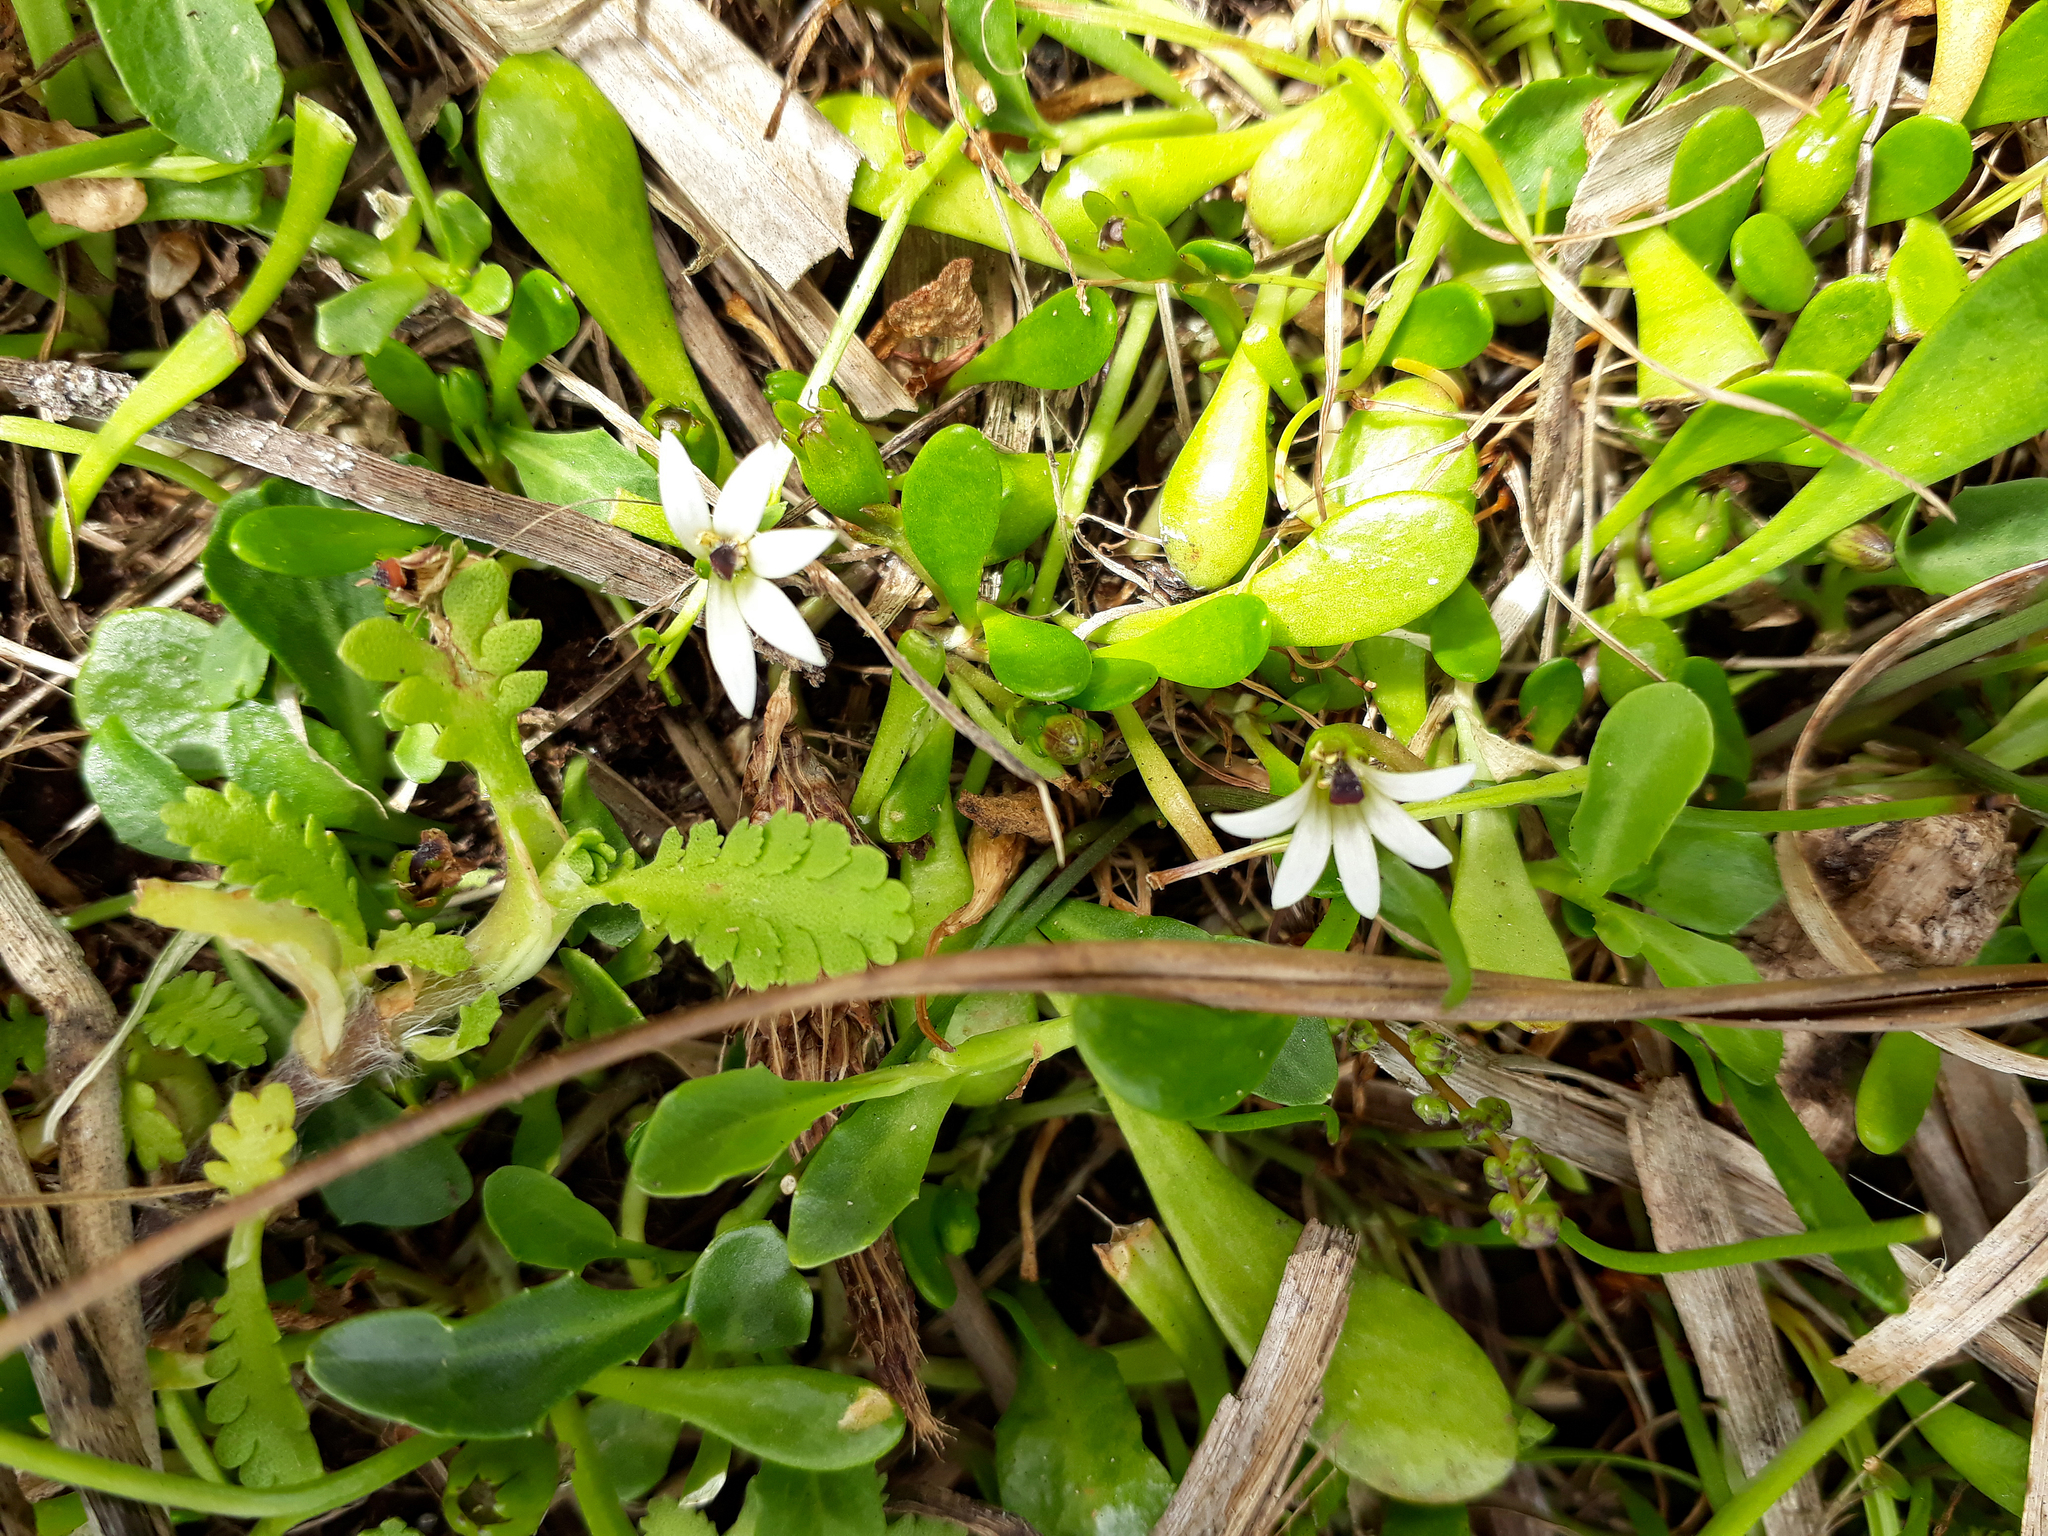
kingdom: Plantae
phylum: Tracheophyta
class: Magnoliopsida
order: Asterales
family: Goodeniaceae
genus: Goodenia
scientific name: Goodenia radicans
